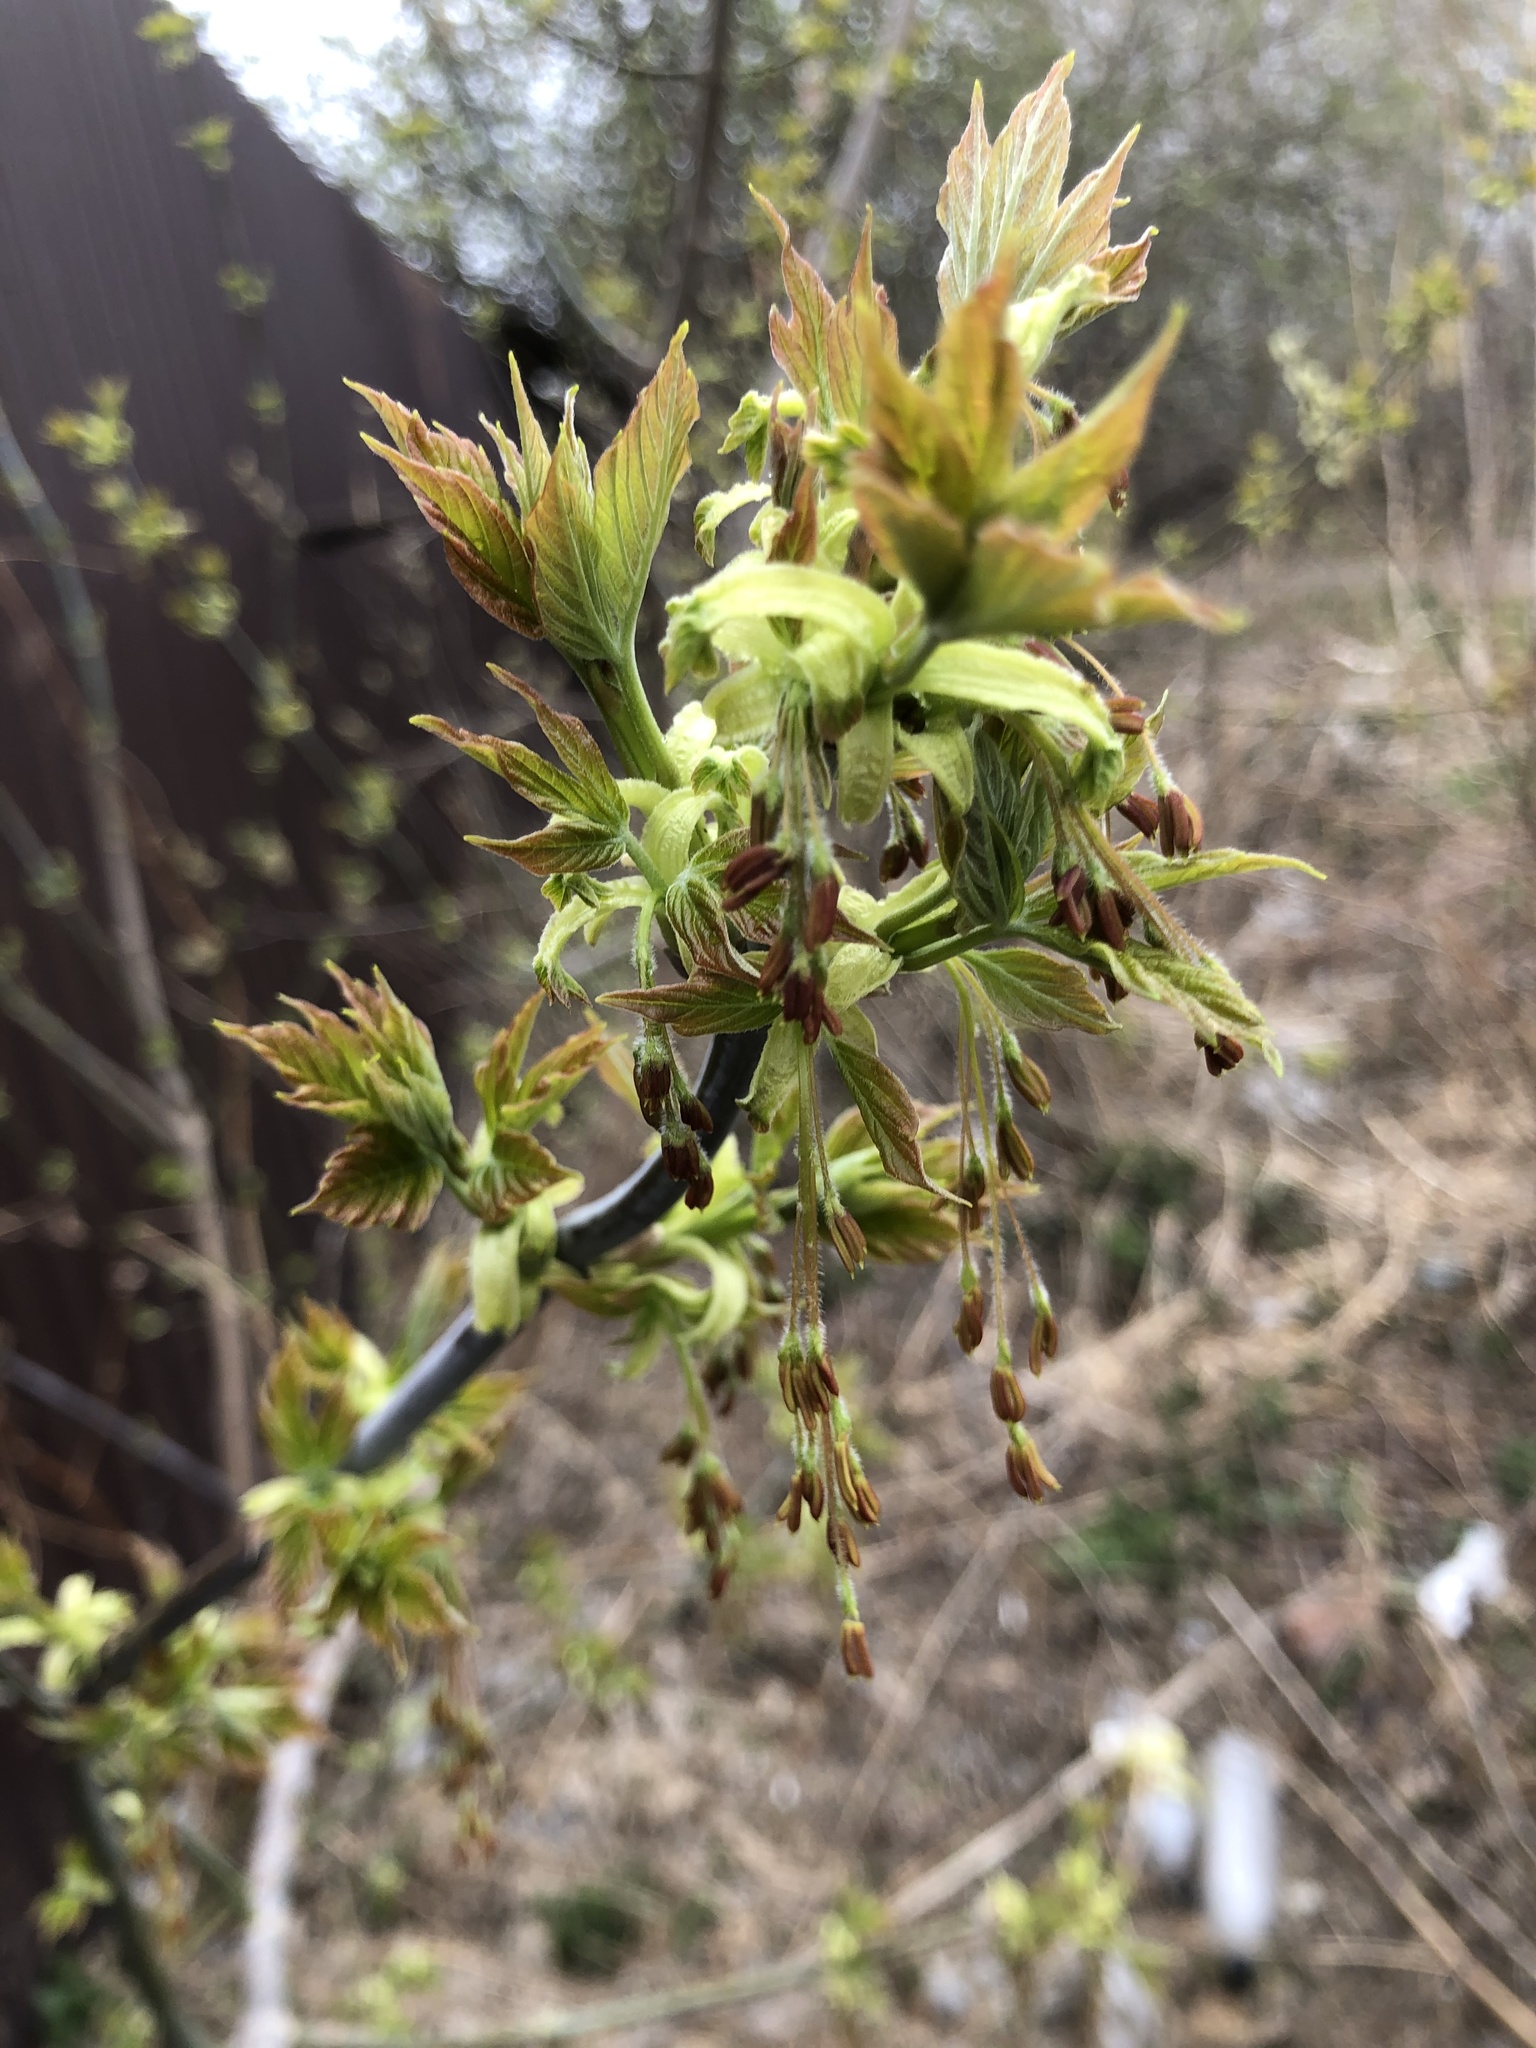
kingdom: Plantae
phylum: Tracheophyta
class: Magnoliopsida
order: Sapindales
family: Sapindaceae
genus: Acer
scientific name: Acer negundo
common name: Ashleaf maple
